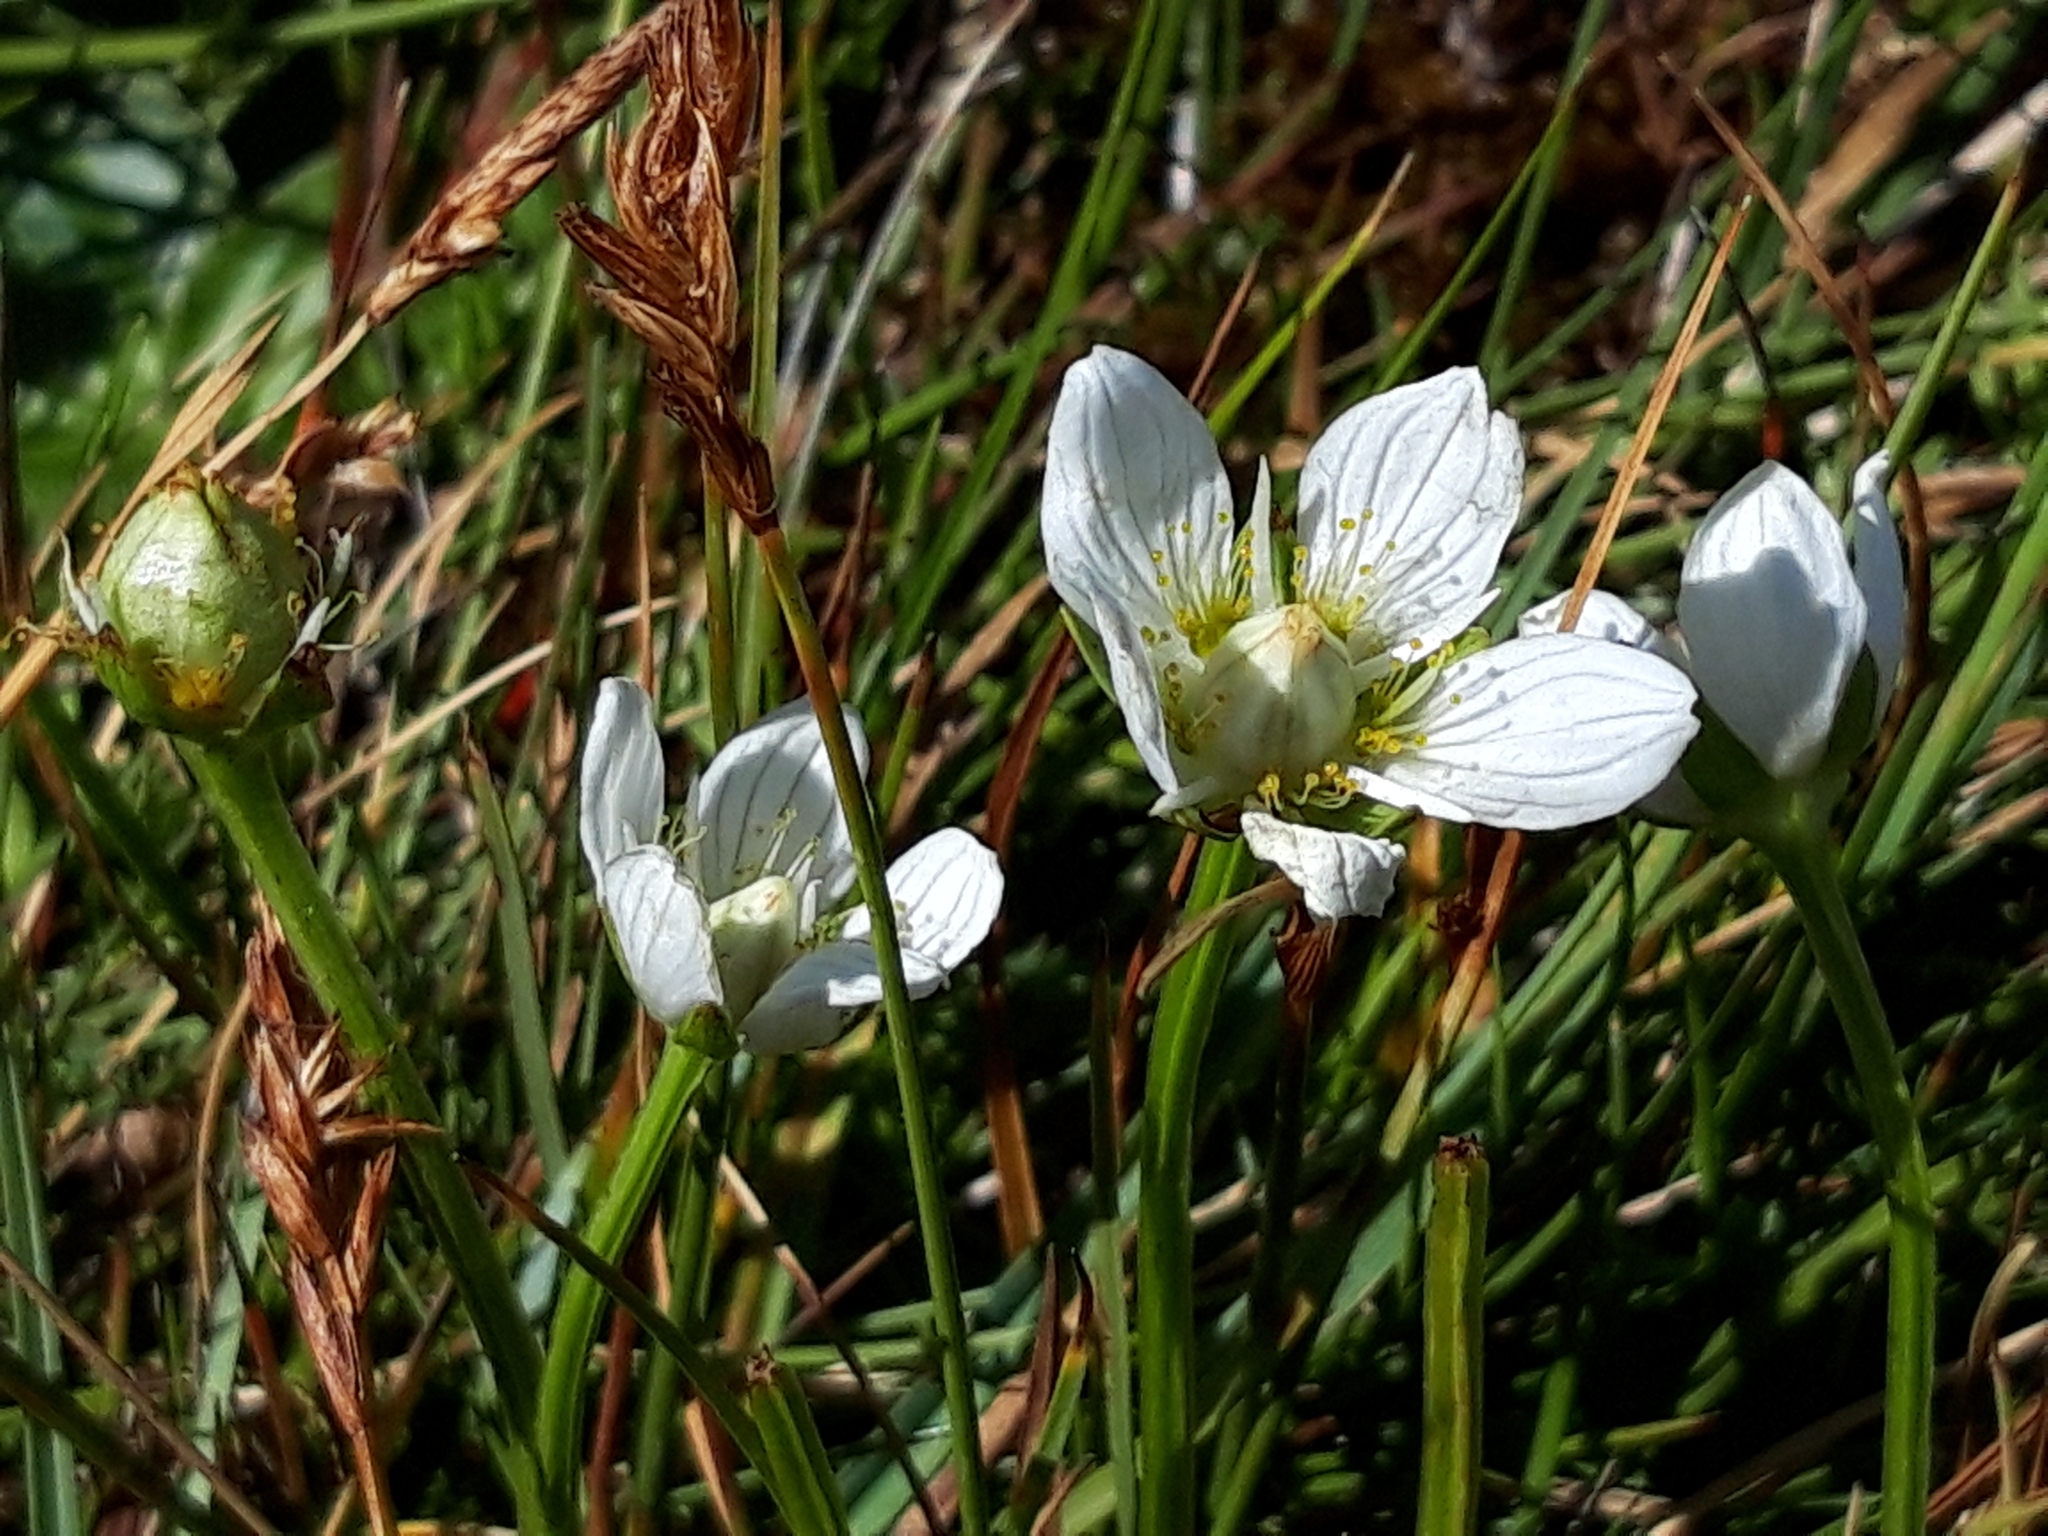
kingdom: Plantae
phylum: Tracheophyta
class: Magnoliopsida
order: Celastrales
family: Parnassiaceae
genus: Parnassia
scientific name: Parnassia palustris
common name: Grass-of-parnassus
